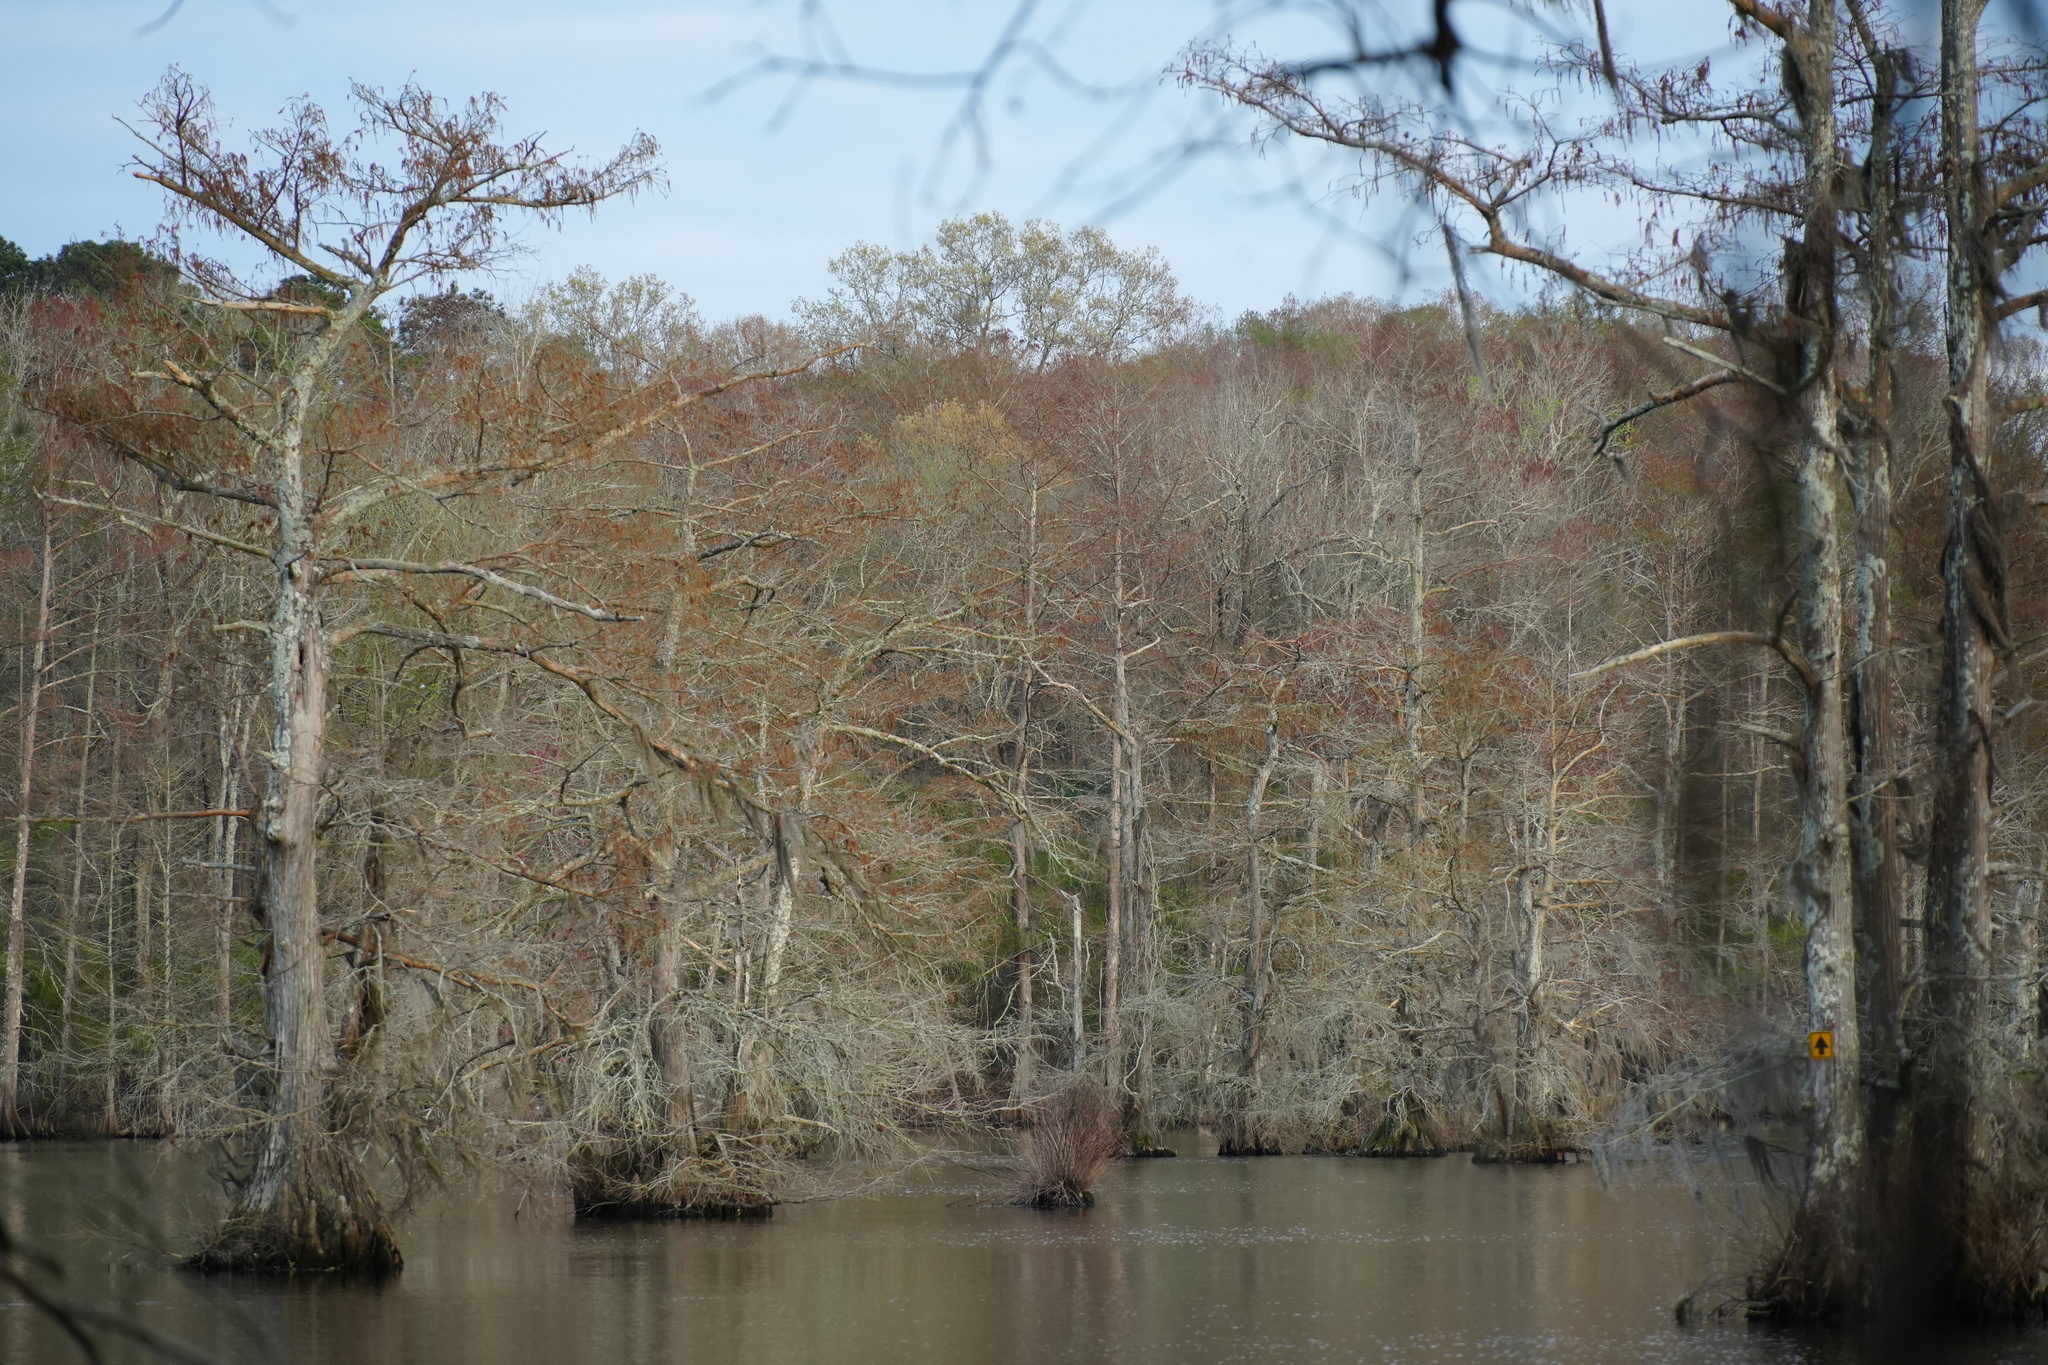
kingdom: Plantae
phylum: Tracheophyta
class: Pinopsida
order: Pinales
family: Cupressaceae
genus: Taxodium
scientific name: Taxodium distichum
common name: Bald cypress
